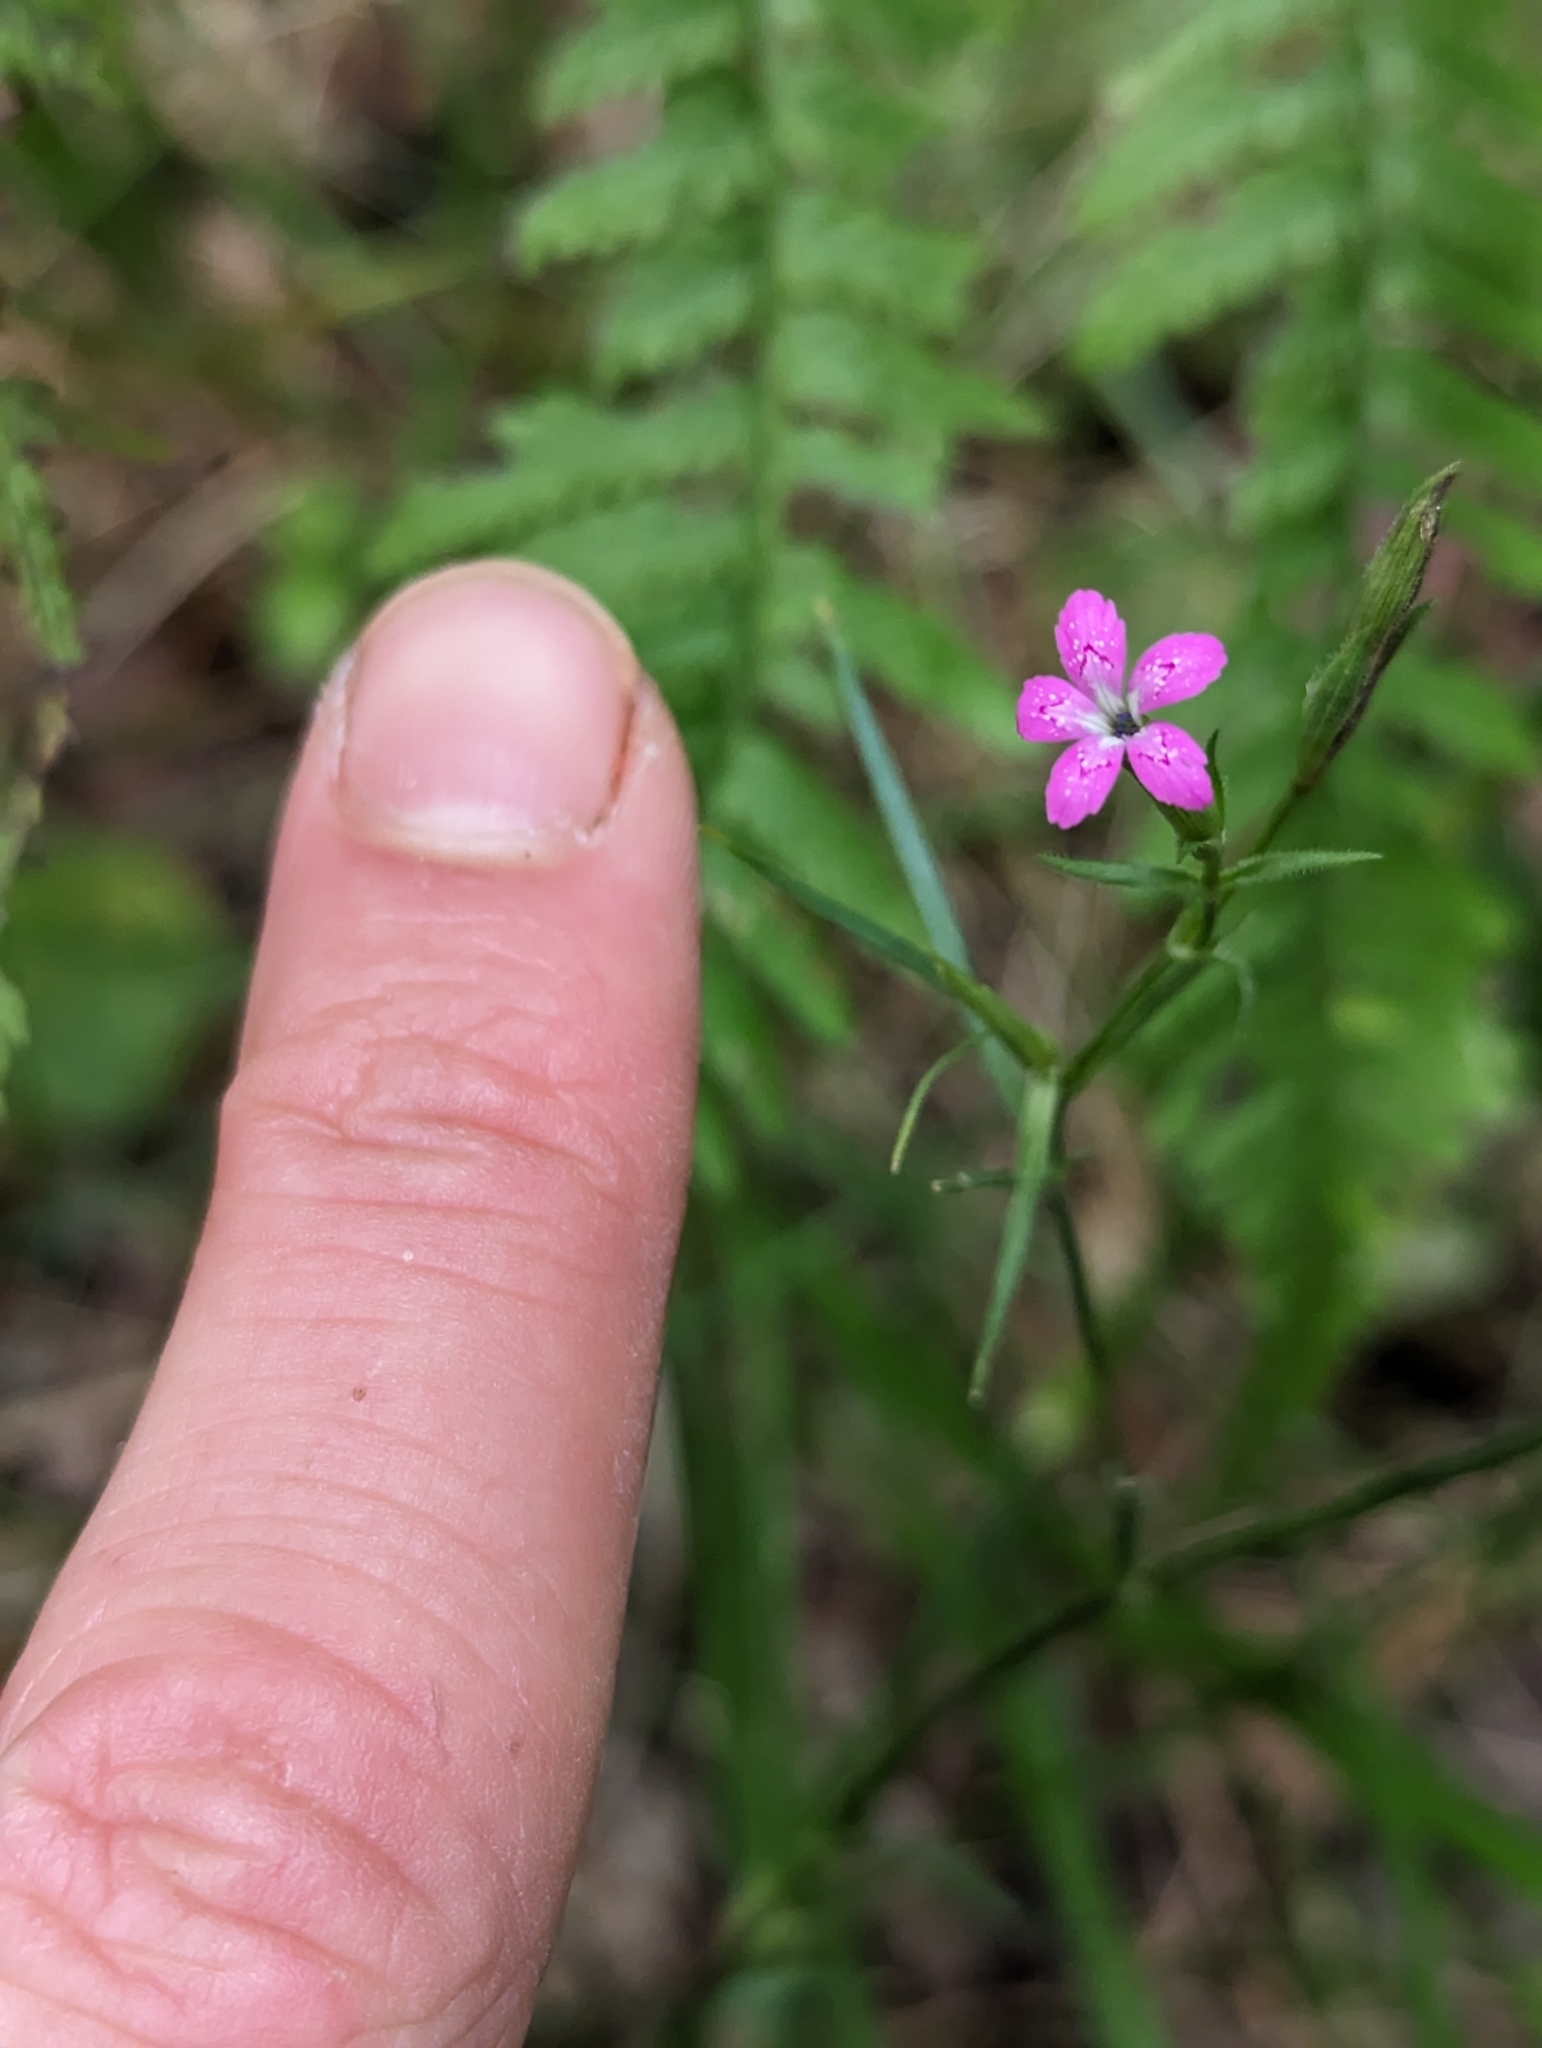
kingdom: Plantae
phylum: Tracheophyta
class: Magnoliopsida
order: Caryophyllales
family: Caryophyllaceae
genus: Dianthus
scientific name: Dianthus armeria
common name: Deptford pink
